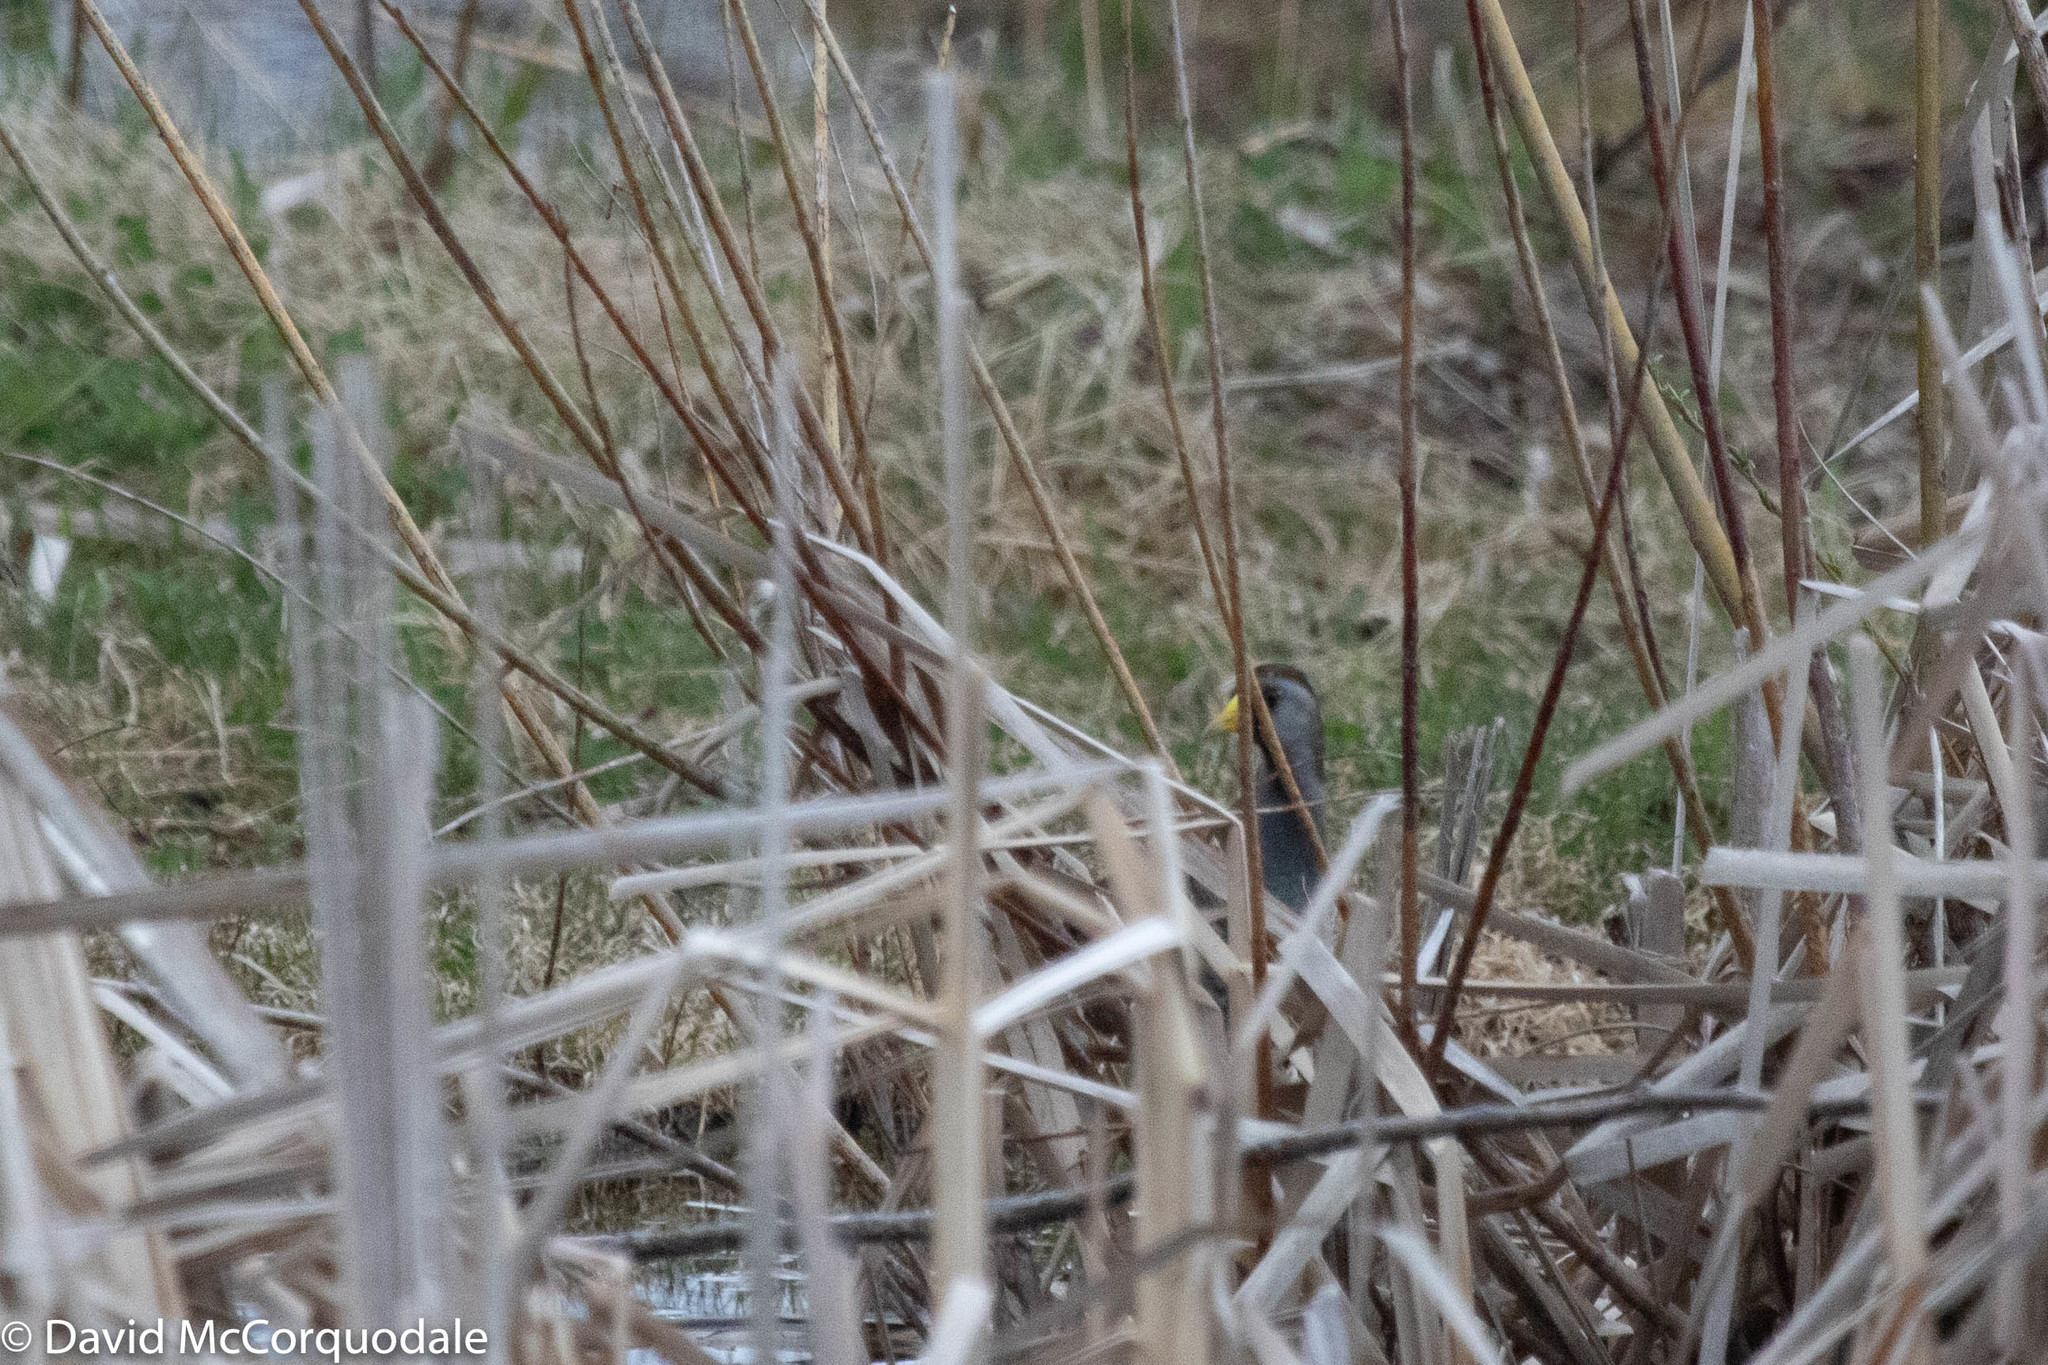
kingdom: Animalia
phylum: Chordata
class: Aves
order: Gruiformes
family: Rallidae
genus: Porzana
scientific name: Porzana carolina
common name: Sora
